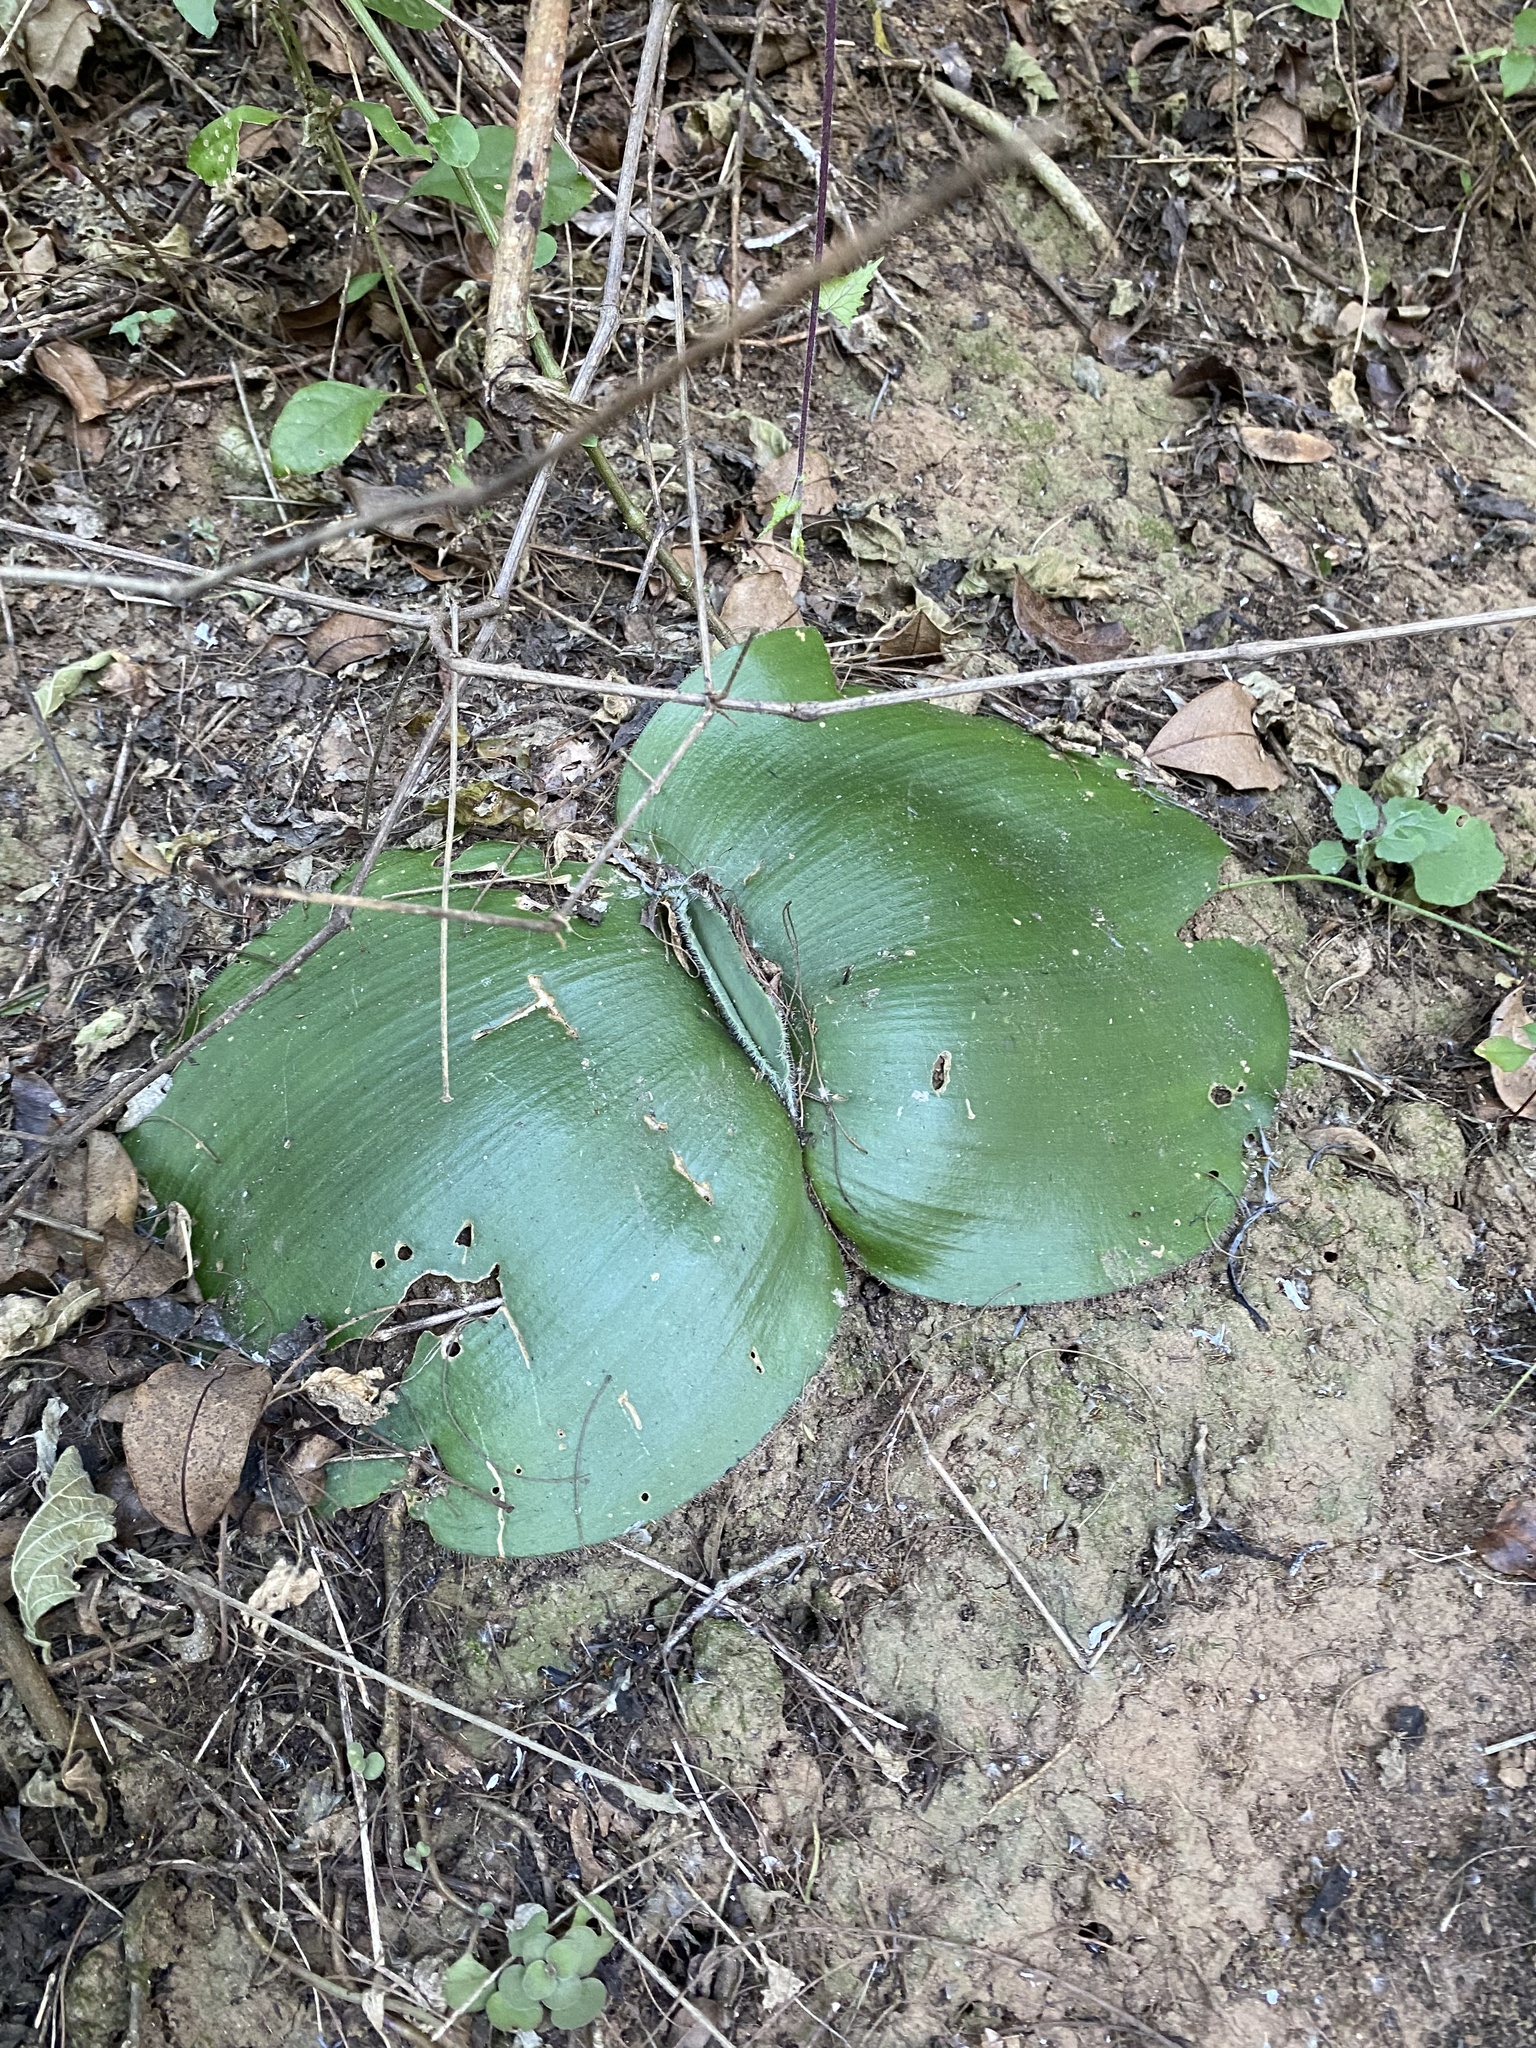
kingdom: Plantae
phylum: Tracheophyta
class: Liliopsida
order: Asparagales
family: Amaryllidaceae
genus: Haemanthus
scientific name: Haemanthus deformis
